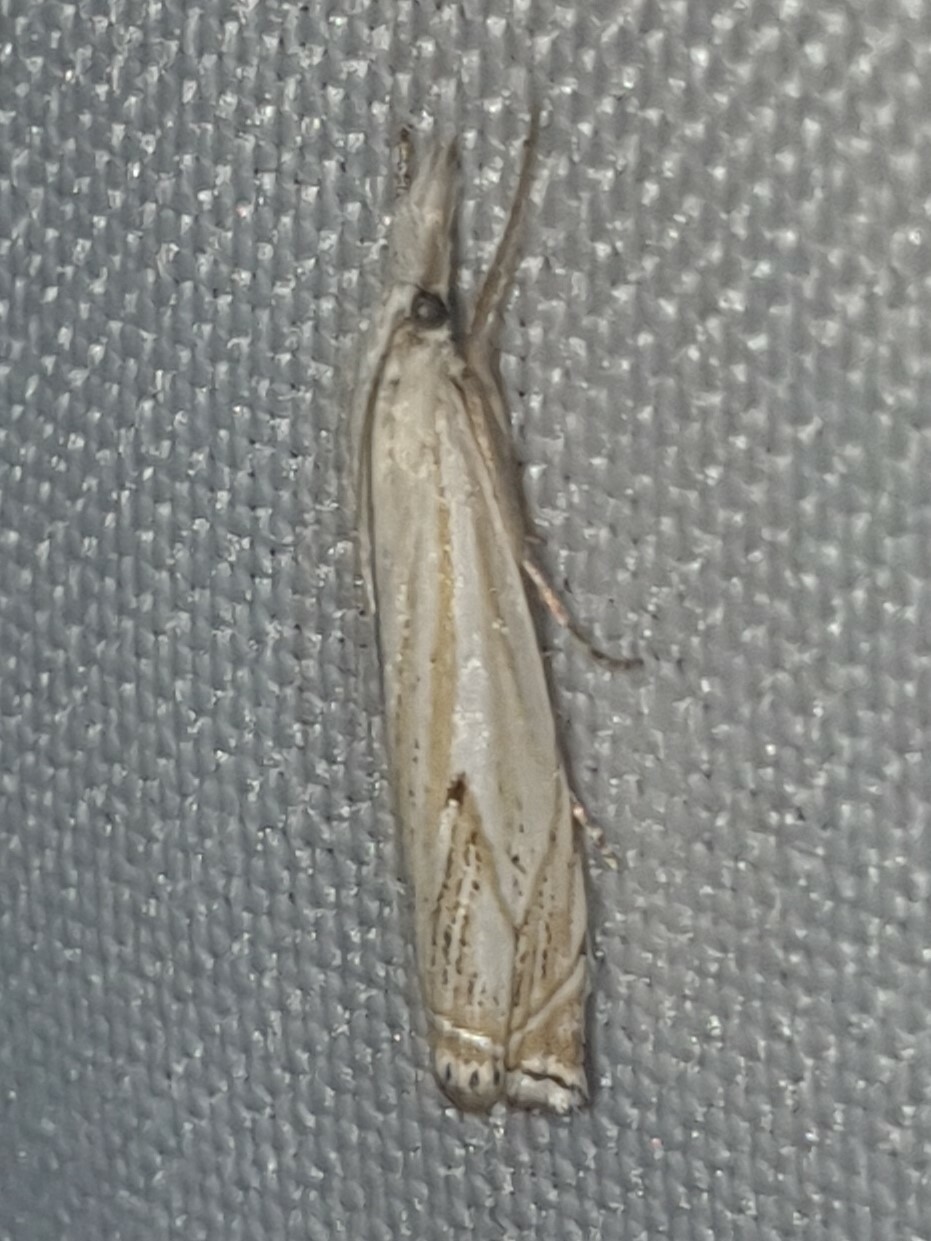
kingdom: Animalia
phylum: Arthropoda
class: Insecta
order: Lepidoptera
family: Crambidae
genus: Crambus
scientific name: Crambus nemorella
